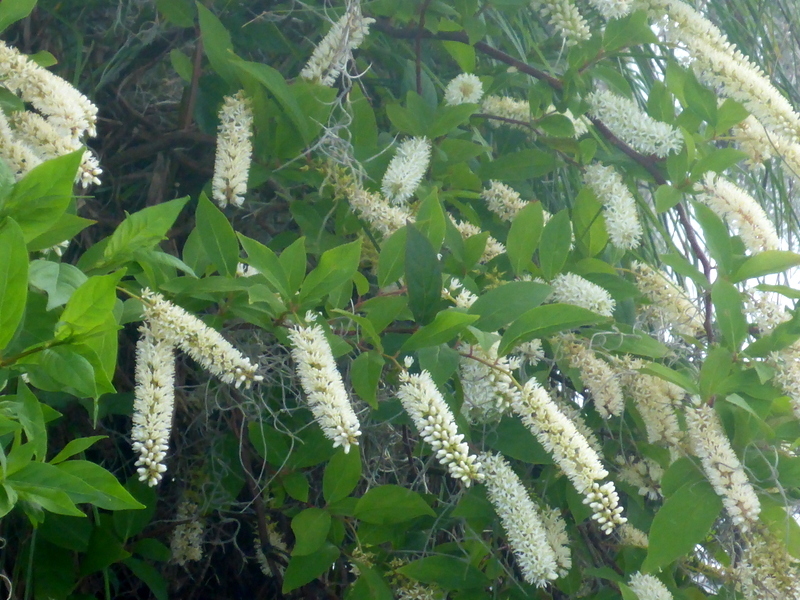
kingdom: Plantae
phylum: Tracheophyta
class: Magnoliopsida
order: Saxifragales
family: Iteaceae
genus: Itea
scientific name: Itea virginica
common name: Sweetspire
